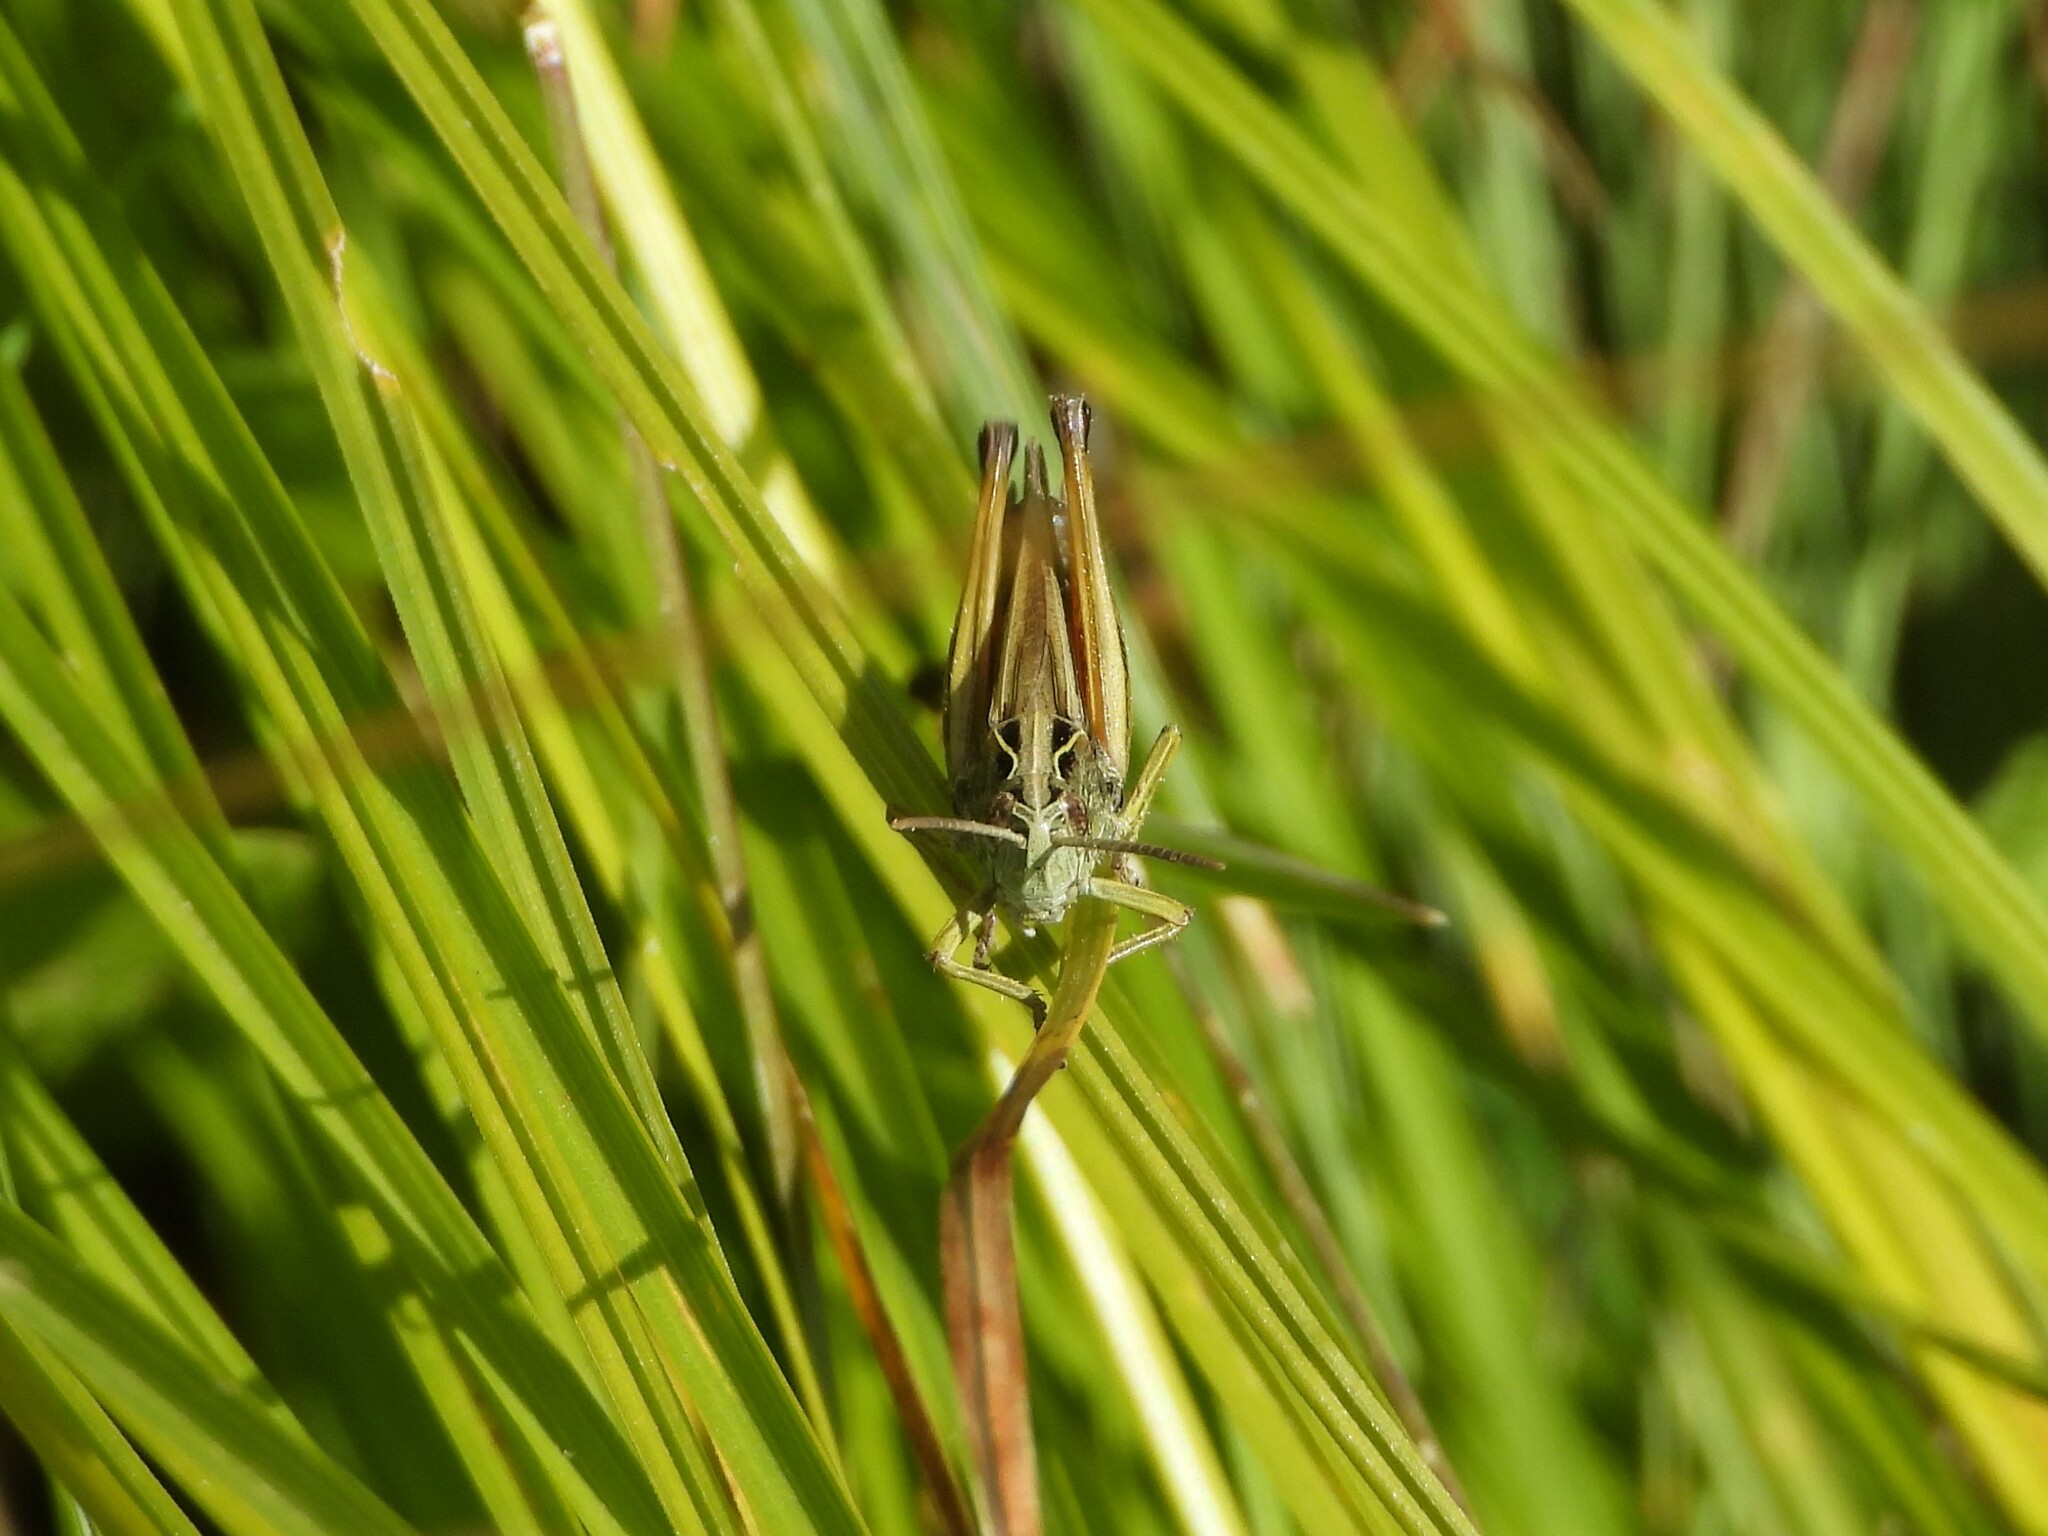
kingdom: Animalia
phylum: Arthropoda
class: Insecta
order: Orthoptera
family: Acrididae
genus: Omocestus
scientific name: Omocestus viridulus
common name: Common green grasshopper
